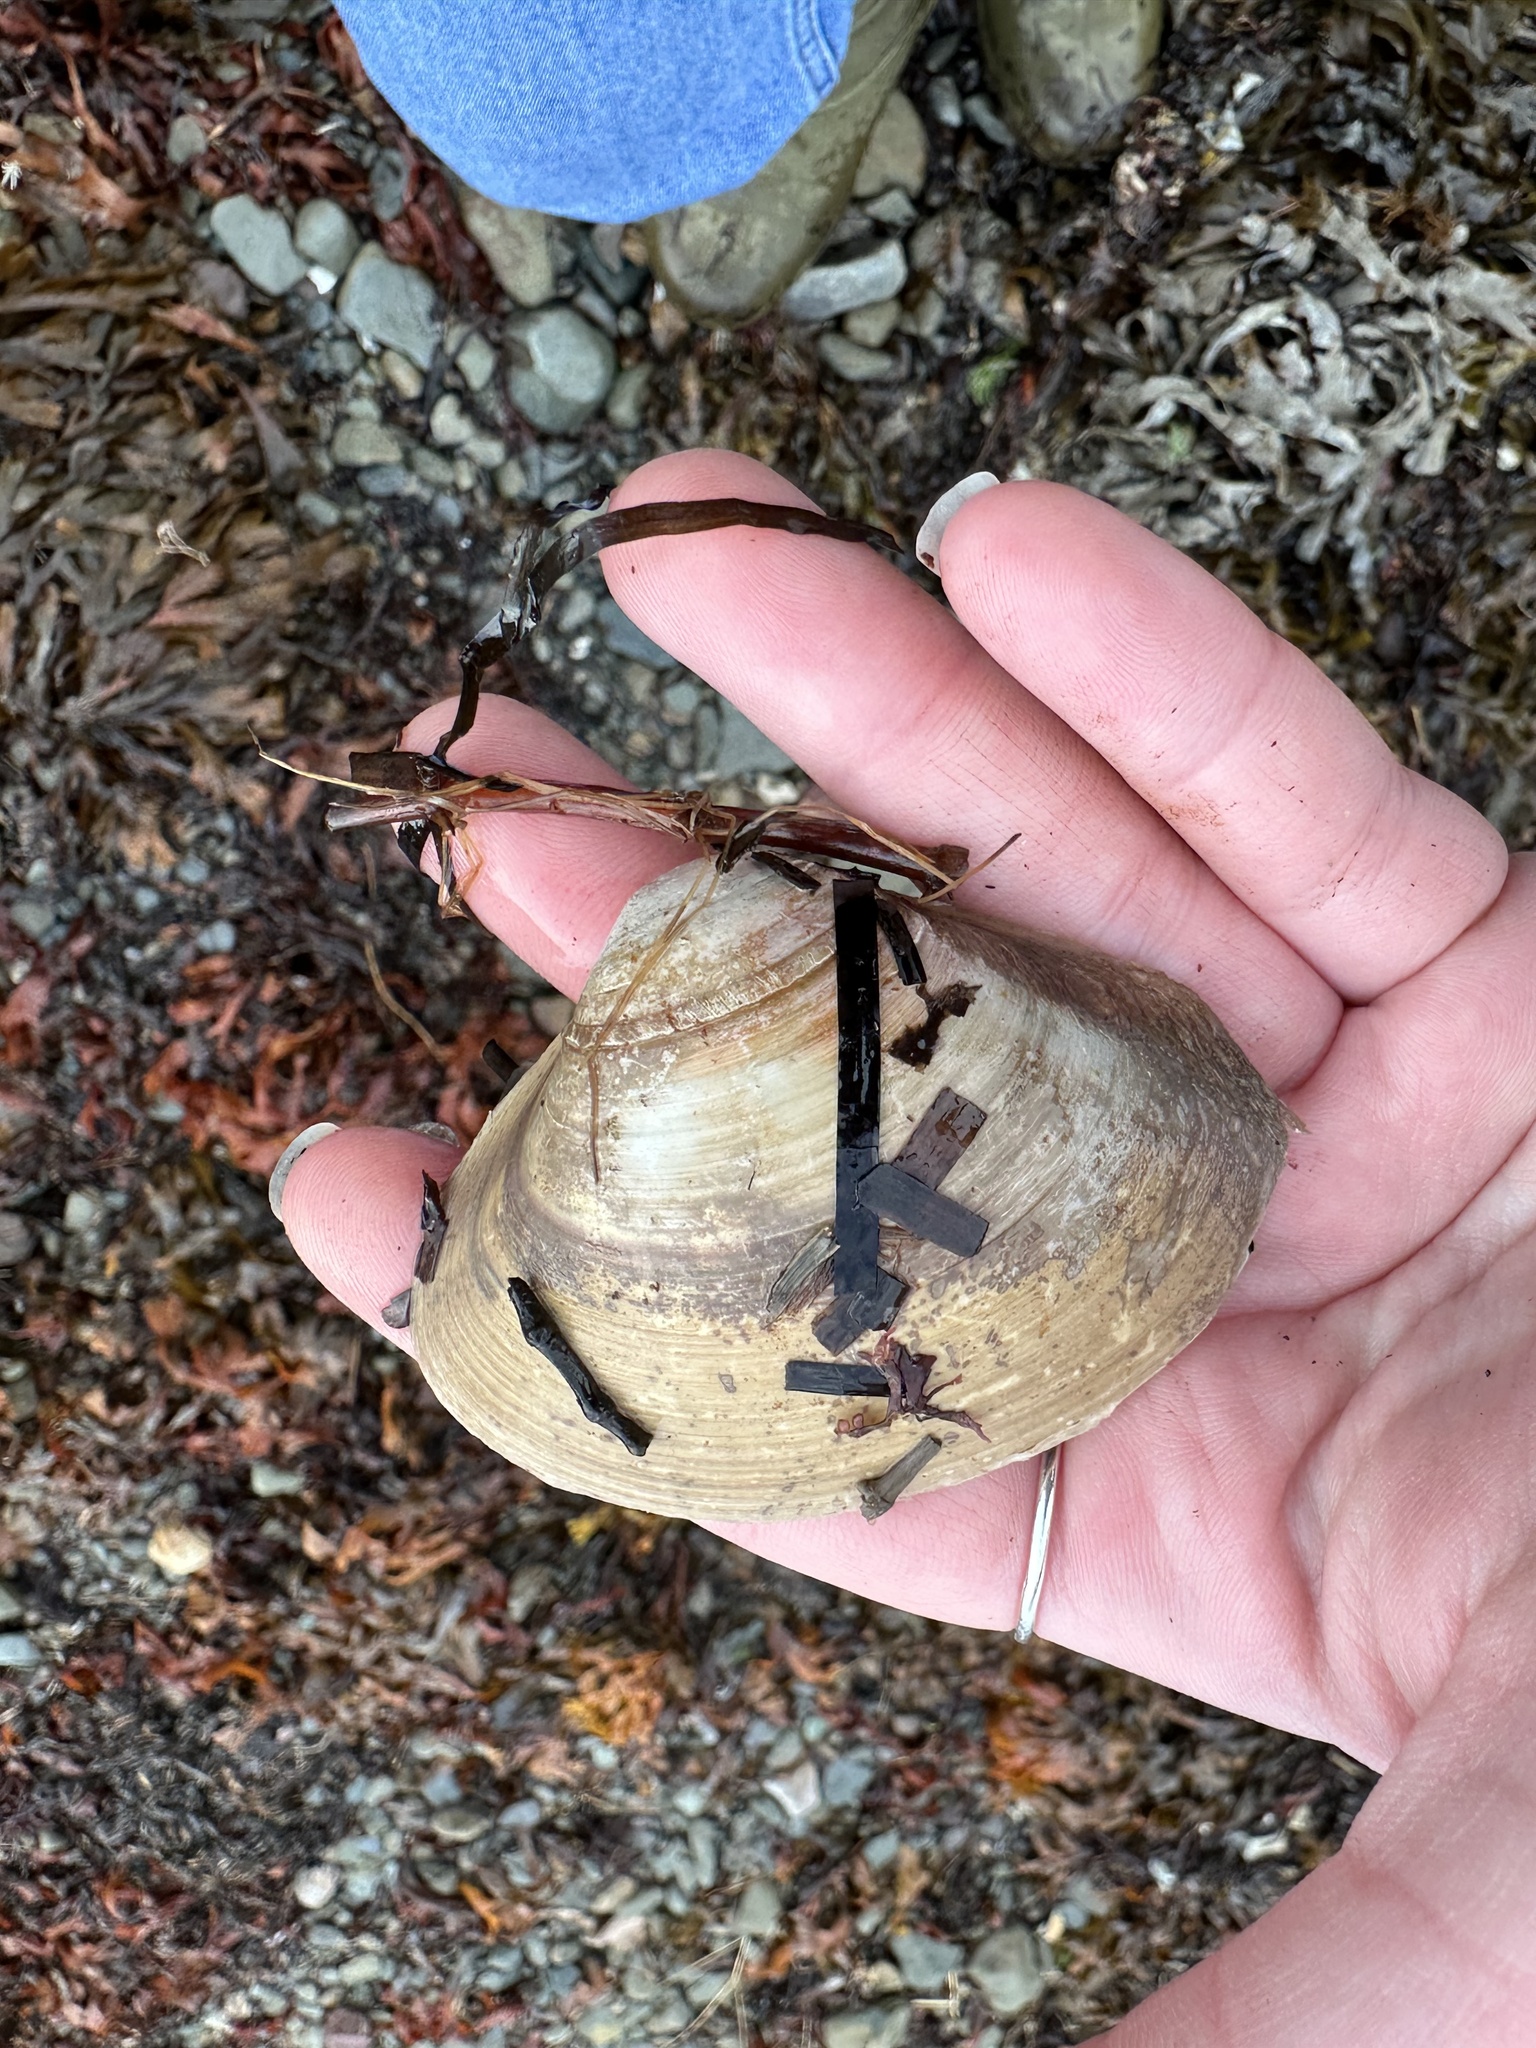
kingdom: Animalia
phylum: Mollusca
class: Bivalvia
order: Venerida
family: Mactridae
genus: Spisula
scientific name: Spisula solidissima
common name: Atlantic surf clam
